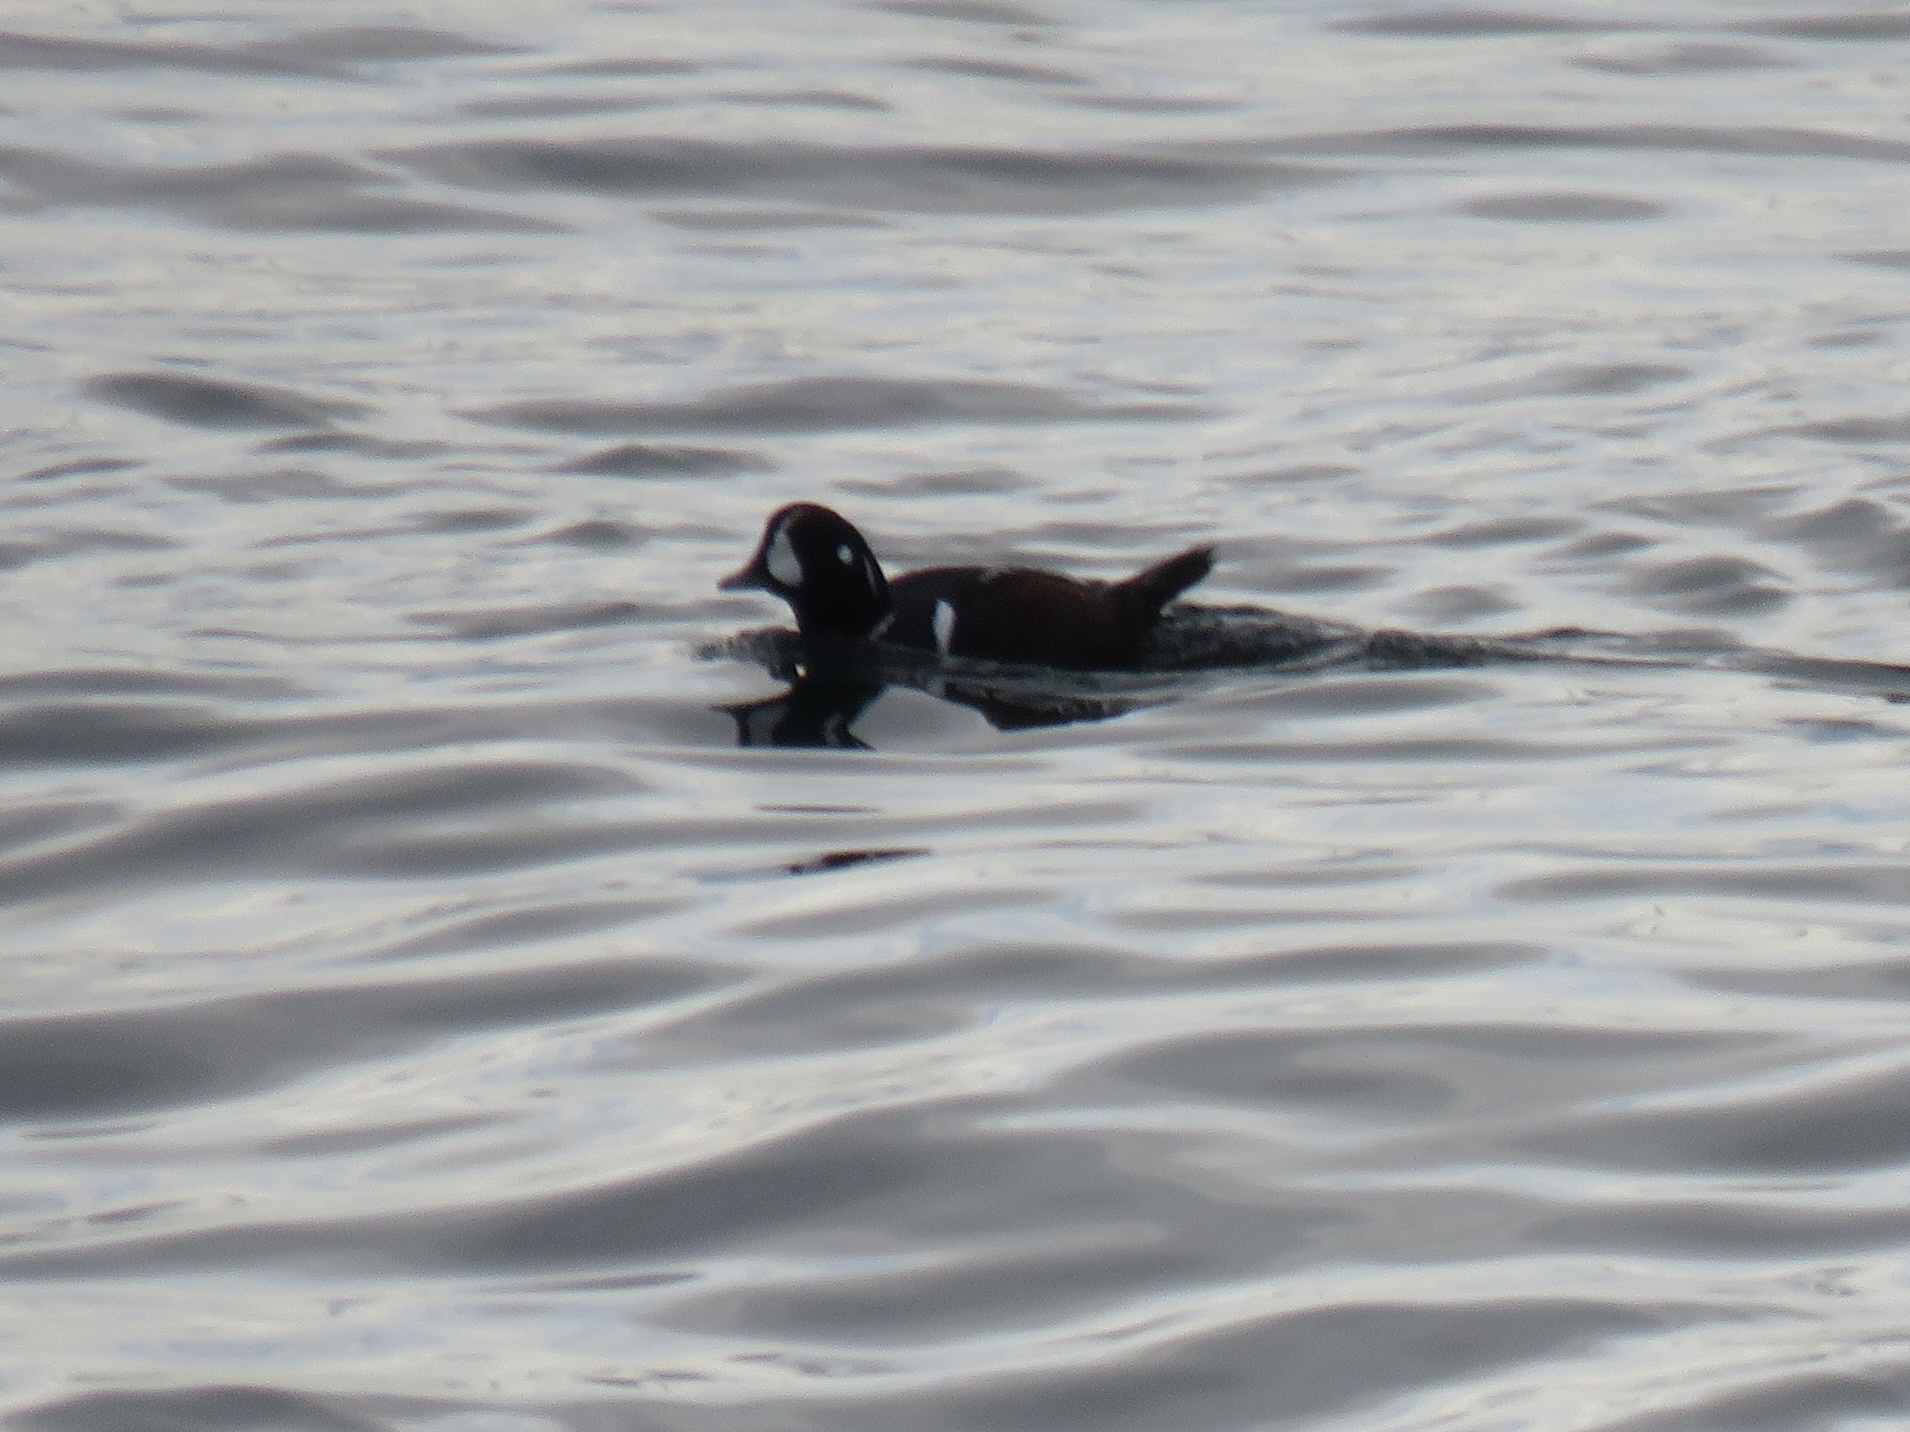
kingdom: Animalia
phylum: Chordata
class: Aves
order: Anseriformes
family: Anatidae
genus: Histrionicus
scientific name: Histrionicus histrionicus
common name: Harlequin duck
